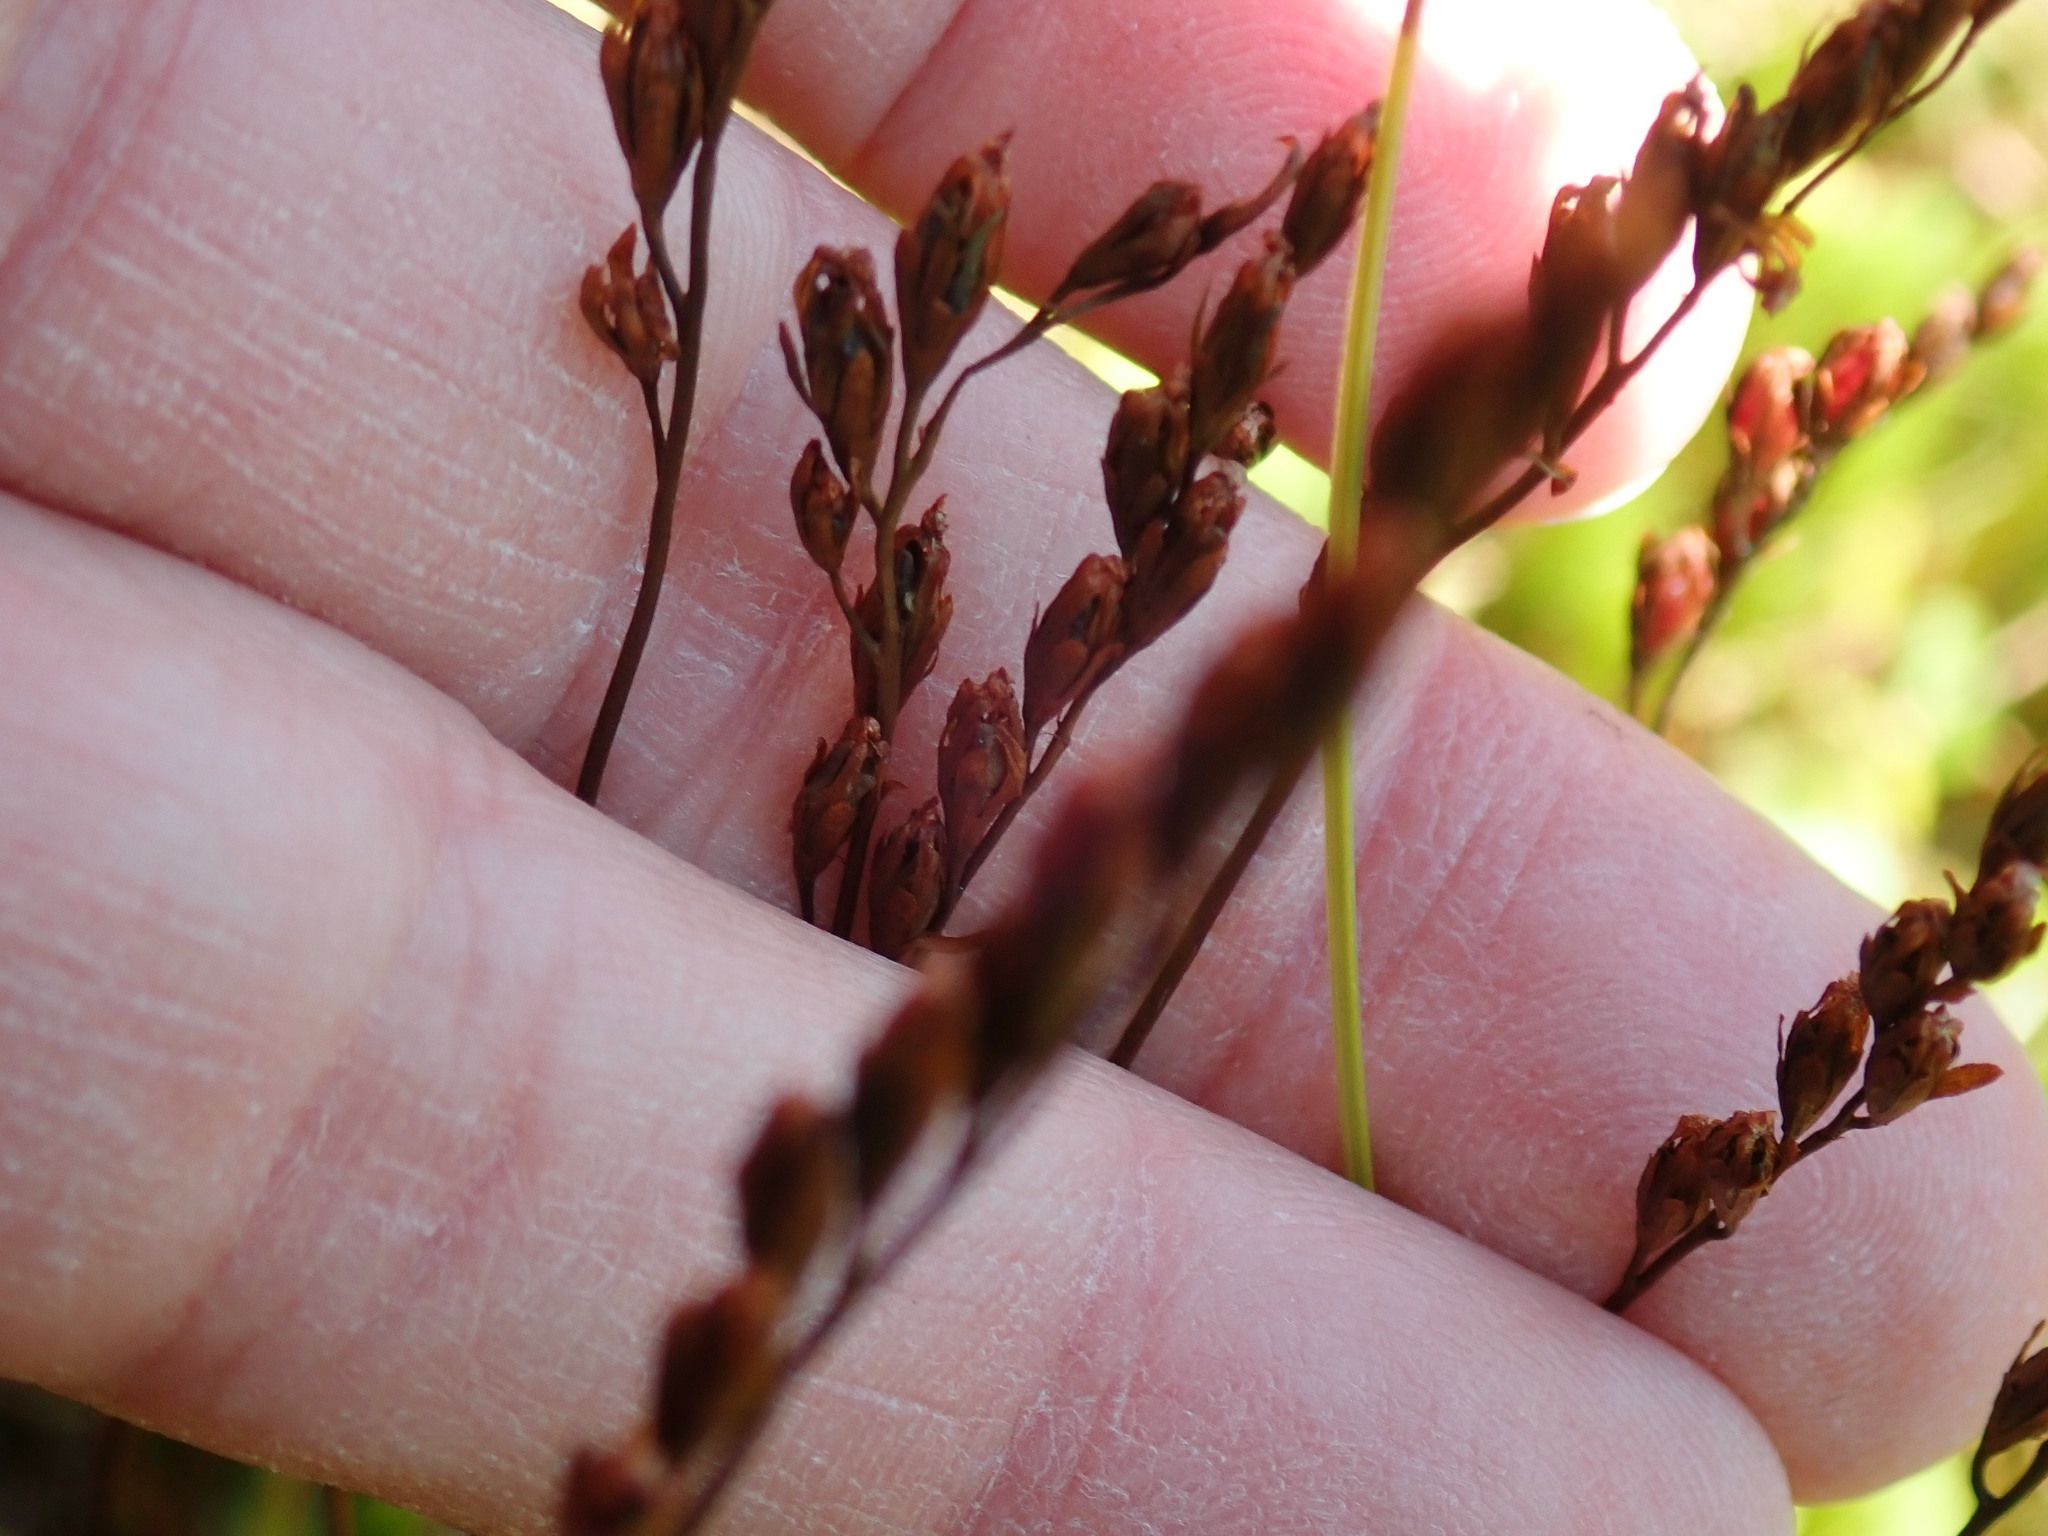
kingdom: Plantae
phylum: Tracheophyta
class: Magnoliopsida
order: Caryophyllales
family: Droseraceae
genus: Drosera
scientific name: Drosera rotundifolia
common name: Round-leaved sundew
